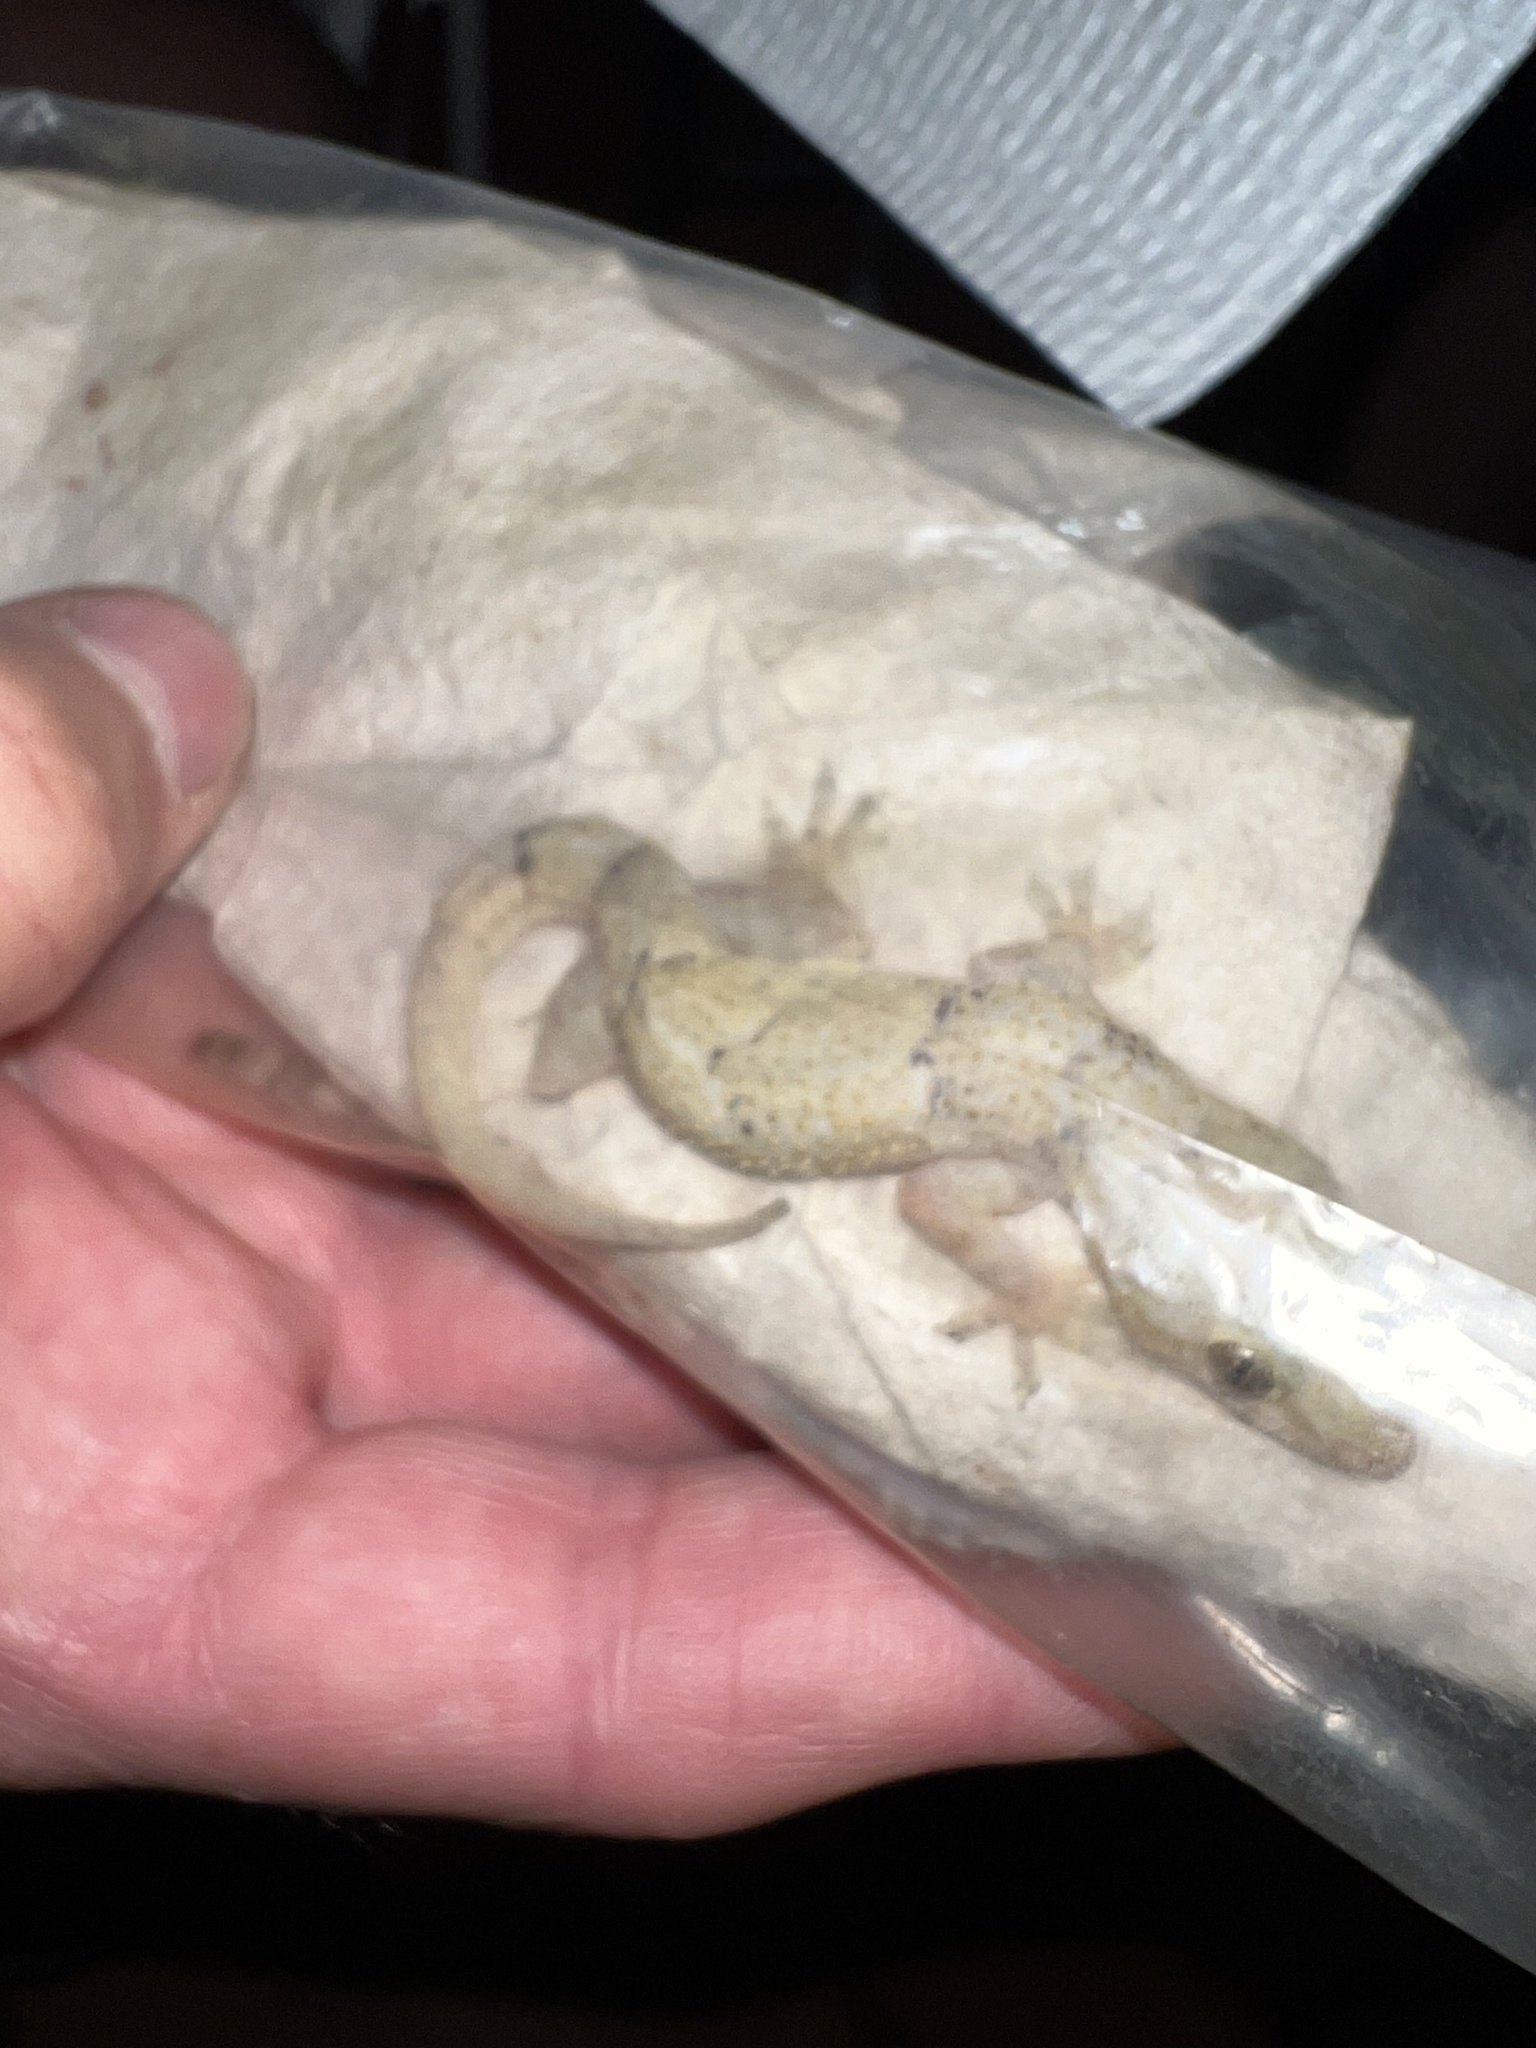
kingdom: Animalia
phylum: Chordata
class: Squamata
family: Gekkonidae
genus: Hemidactylus
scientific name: Hemidactylus mabouia
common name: House gecko
